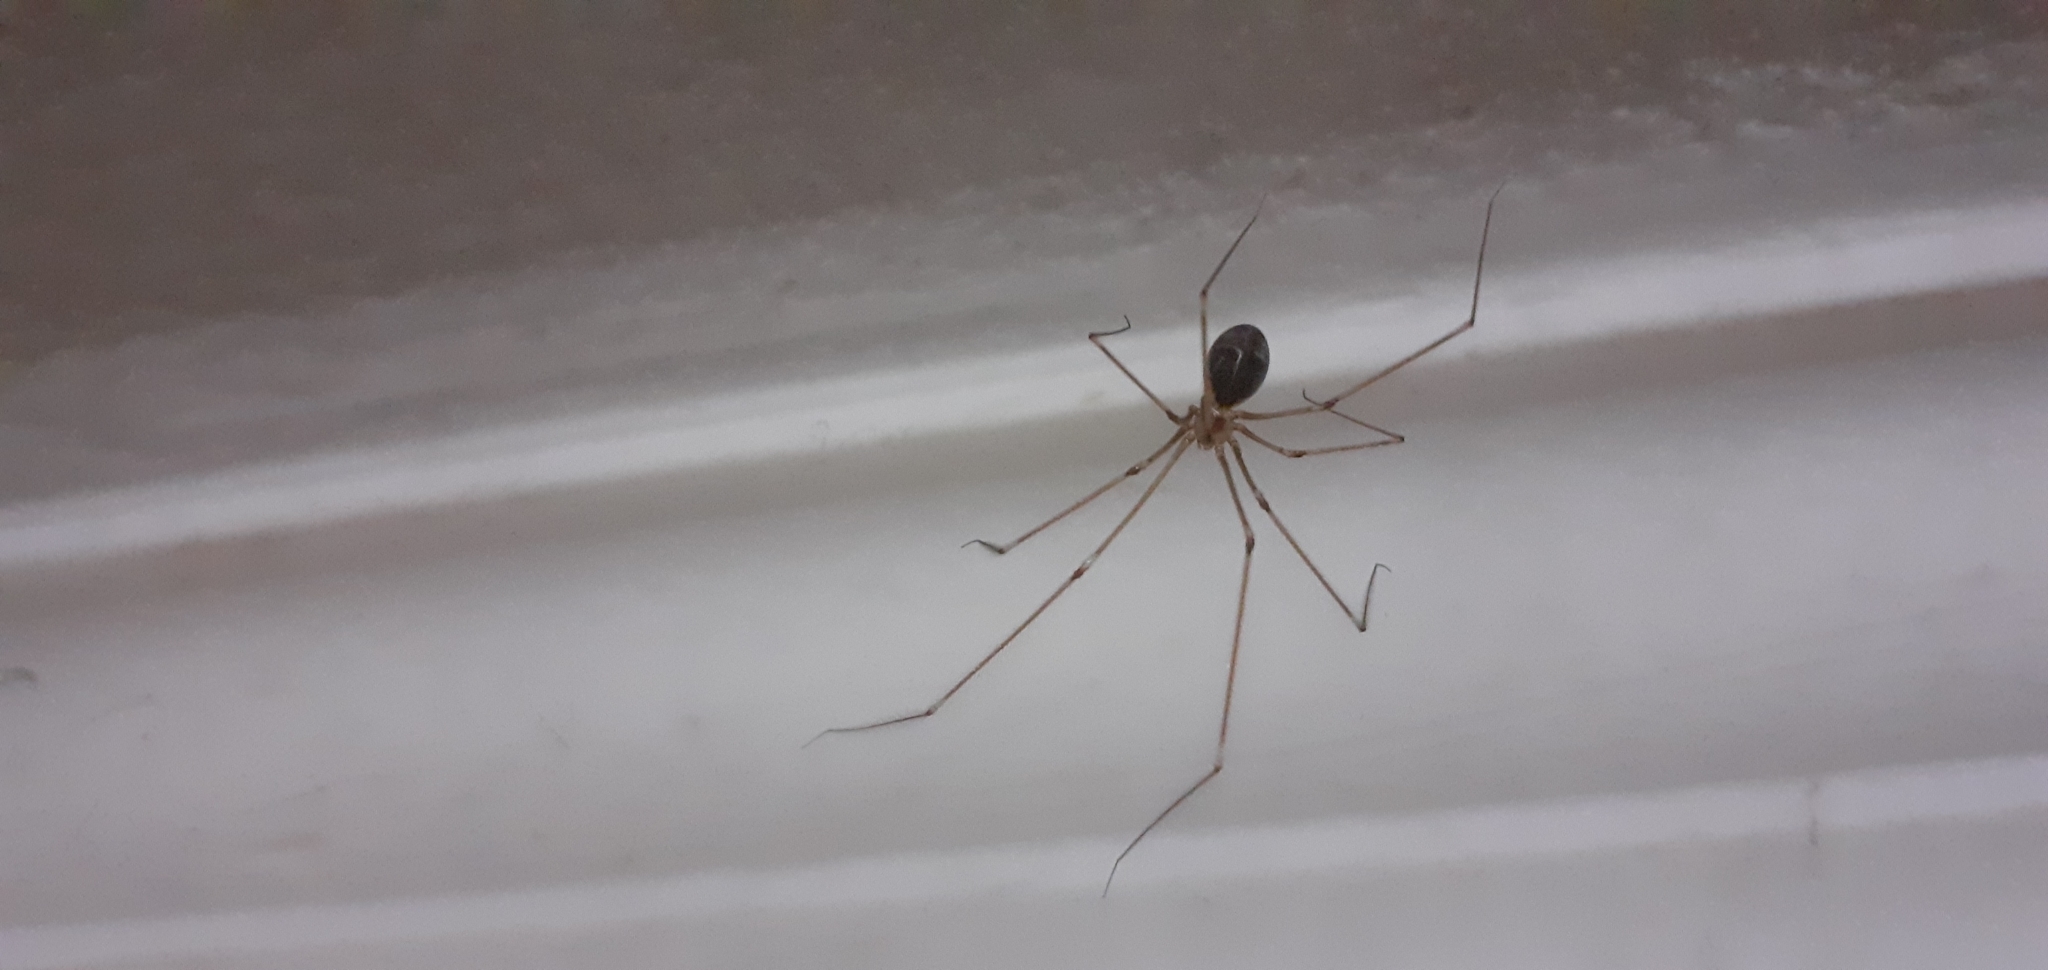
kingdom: Animalia
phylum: Arthropoda
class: Arachnida
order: Araneae
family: Pholcidae
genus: Pholcus
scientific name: Pholcus phalangioides
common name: Longbodied cellar spider
